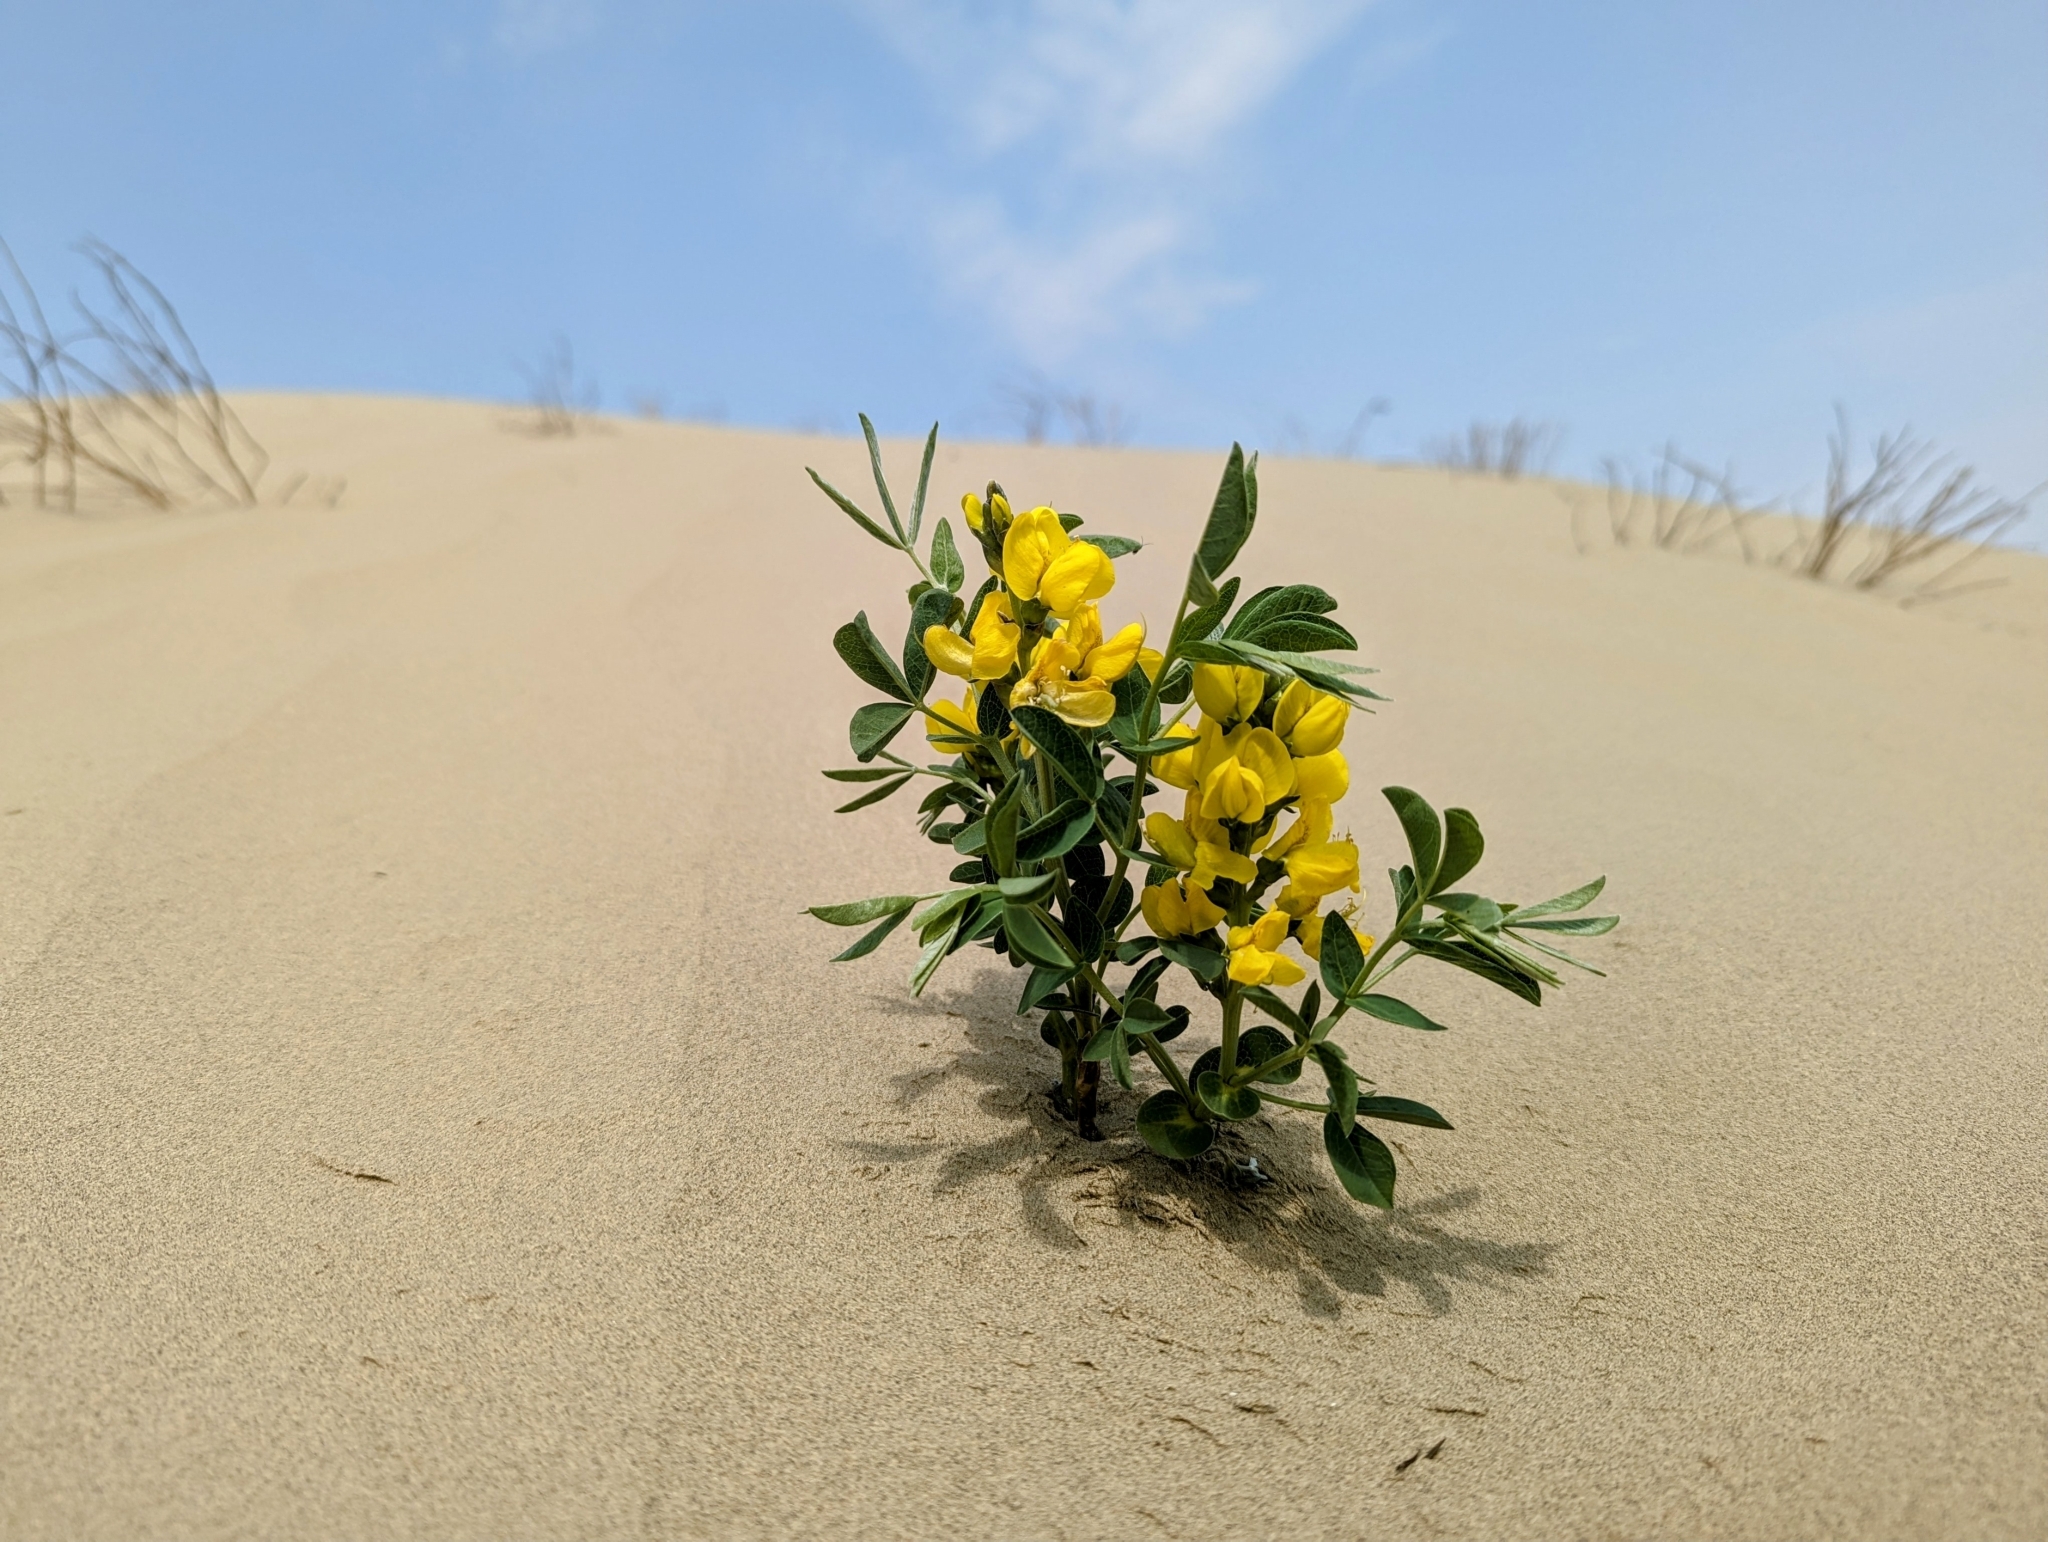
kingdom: Plantae
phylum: Tracheophyta
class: Magnoliopsida
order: Fabales
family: Fabaceae
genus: Thermopsis
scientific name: Thermopsis rhombifolia
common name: Circle-pod-pea
